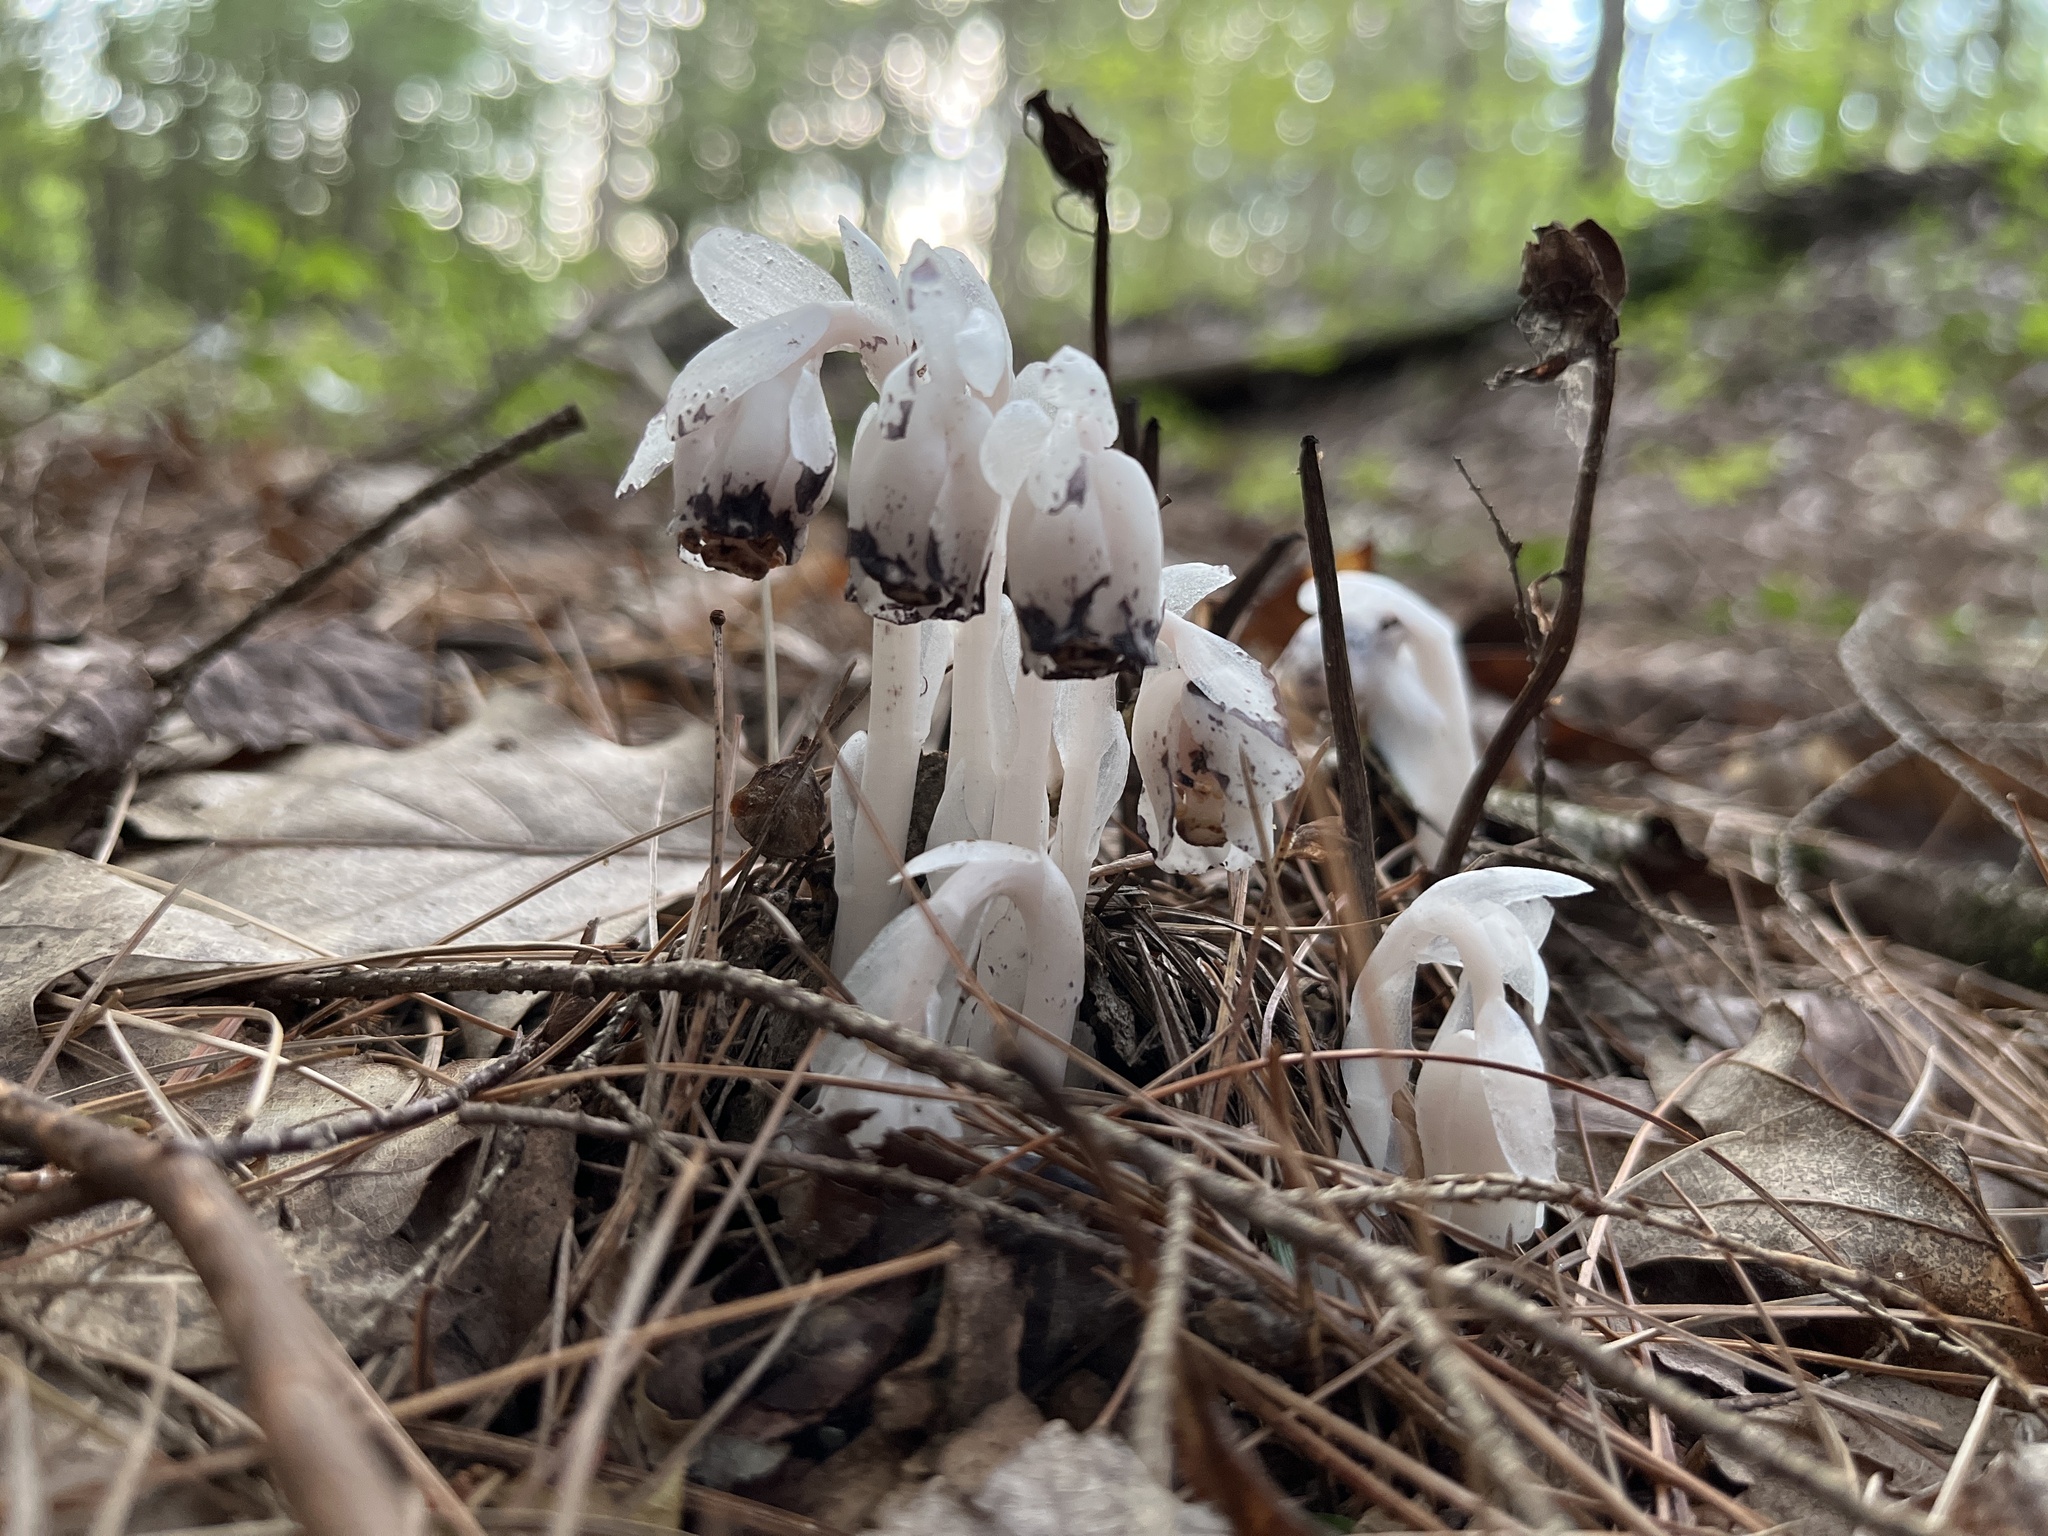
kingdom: Plantae
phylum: Tracheophyta
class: Magnoliopsida
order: Ericales
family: Ericaceae
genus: Monotropa
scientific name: Monotropa uniflora
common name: Convulsion root
